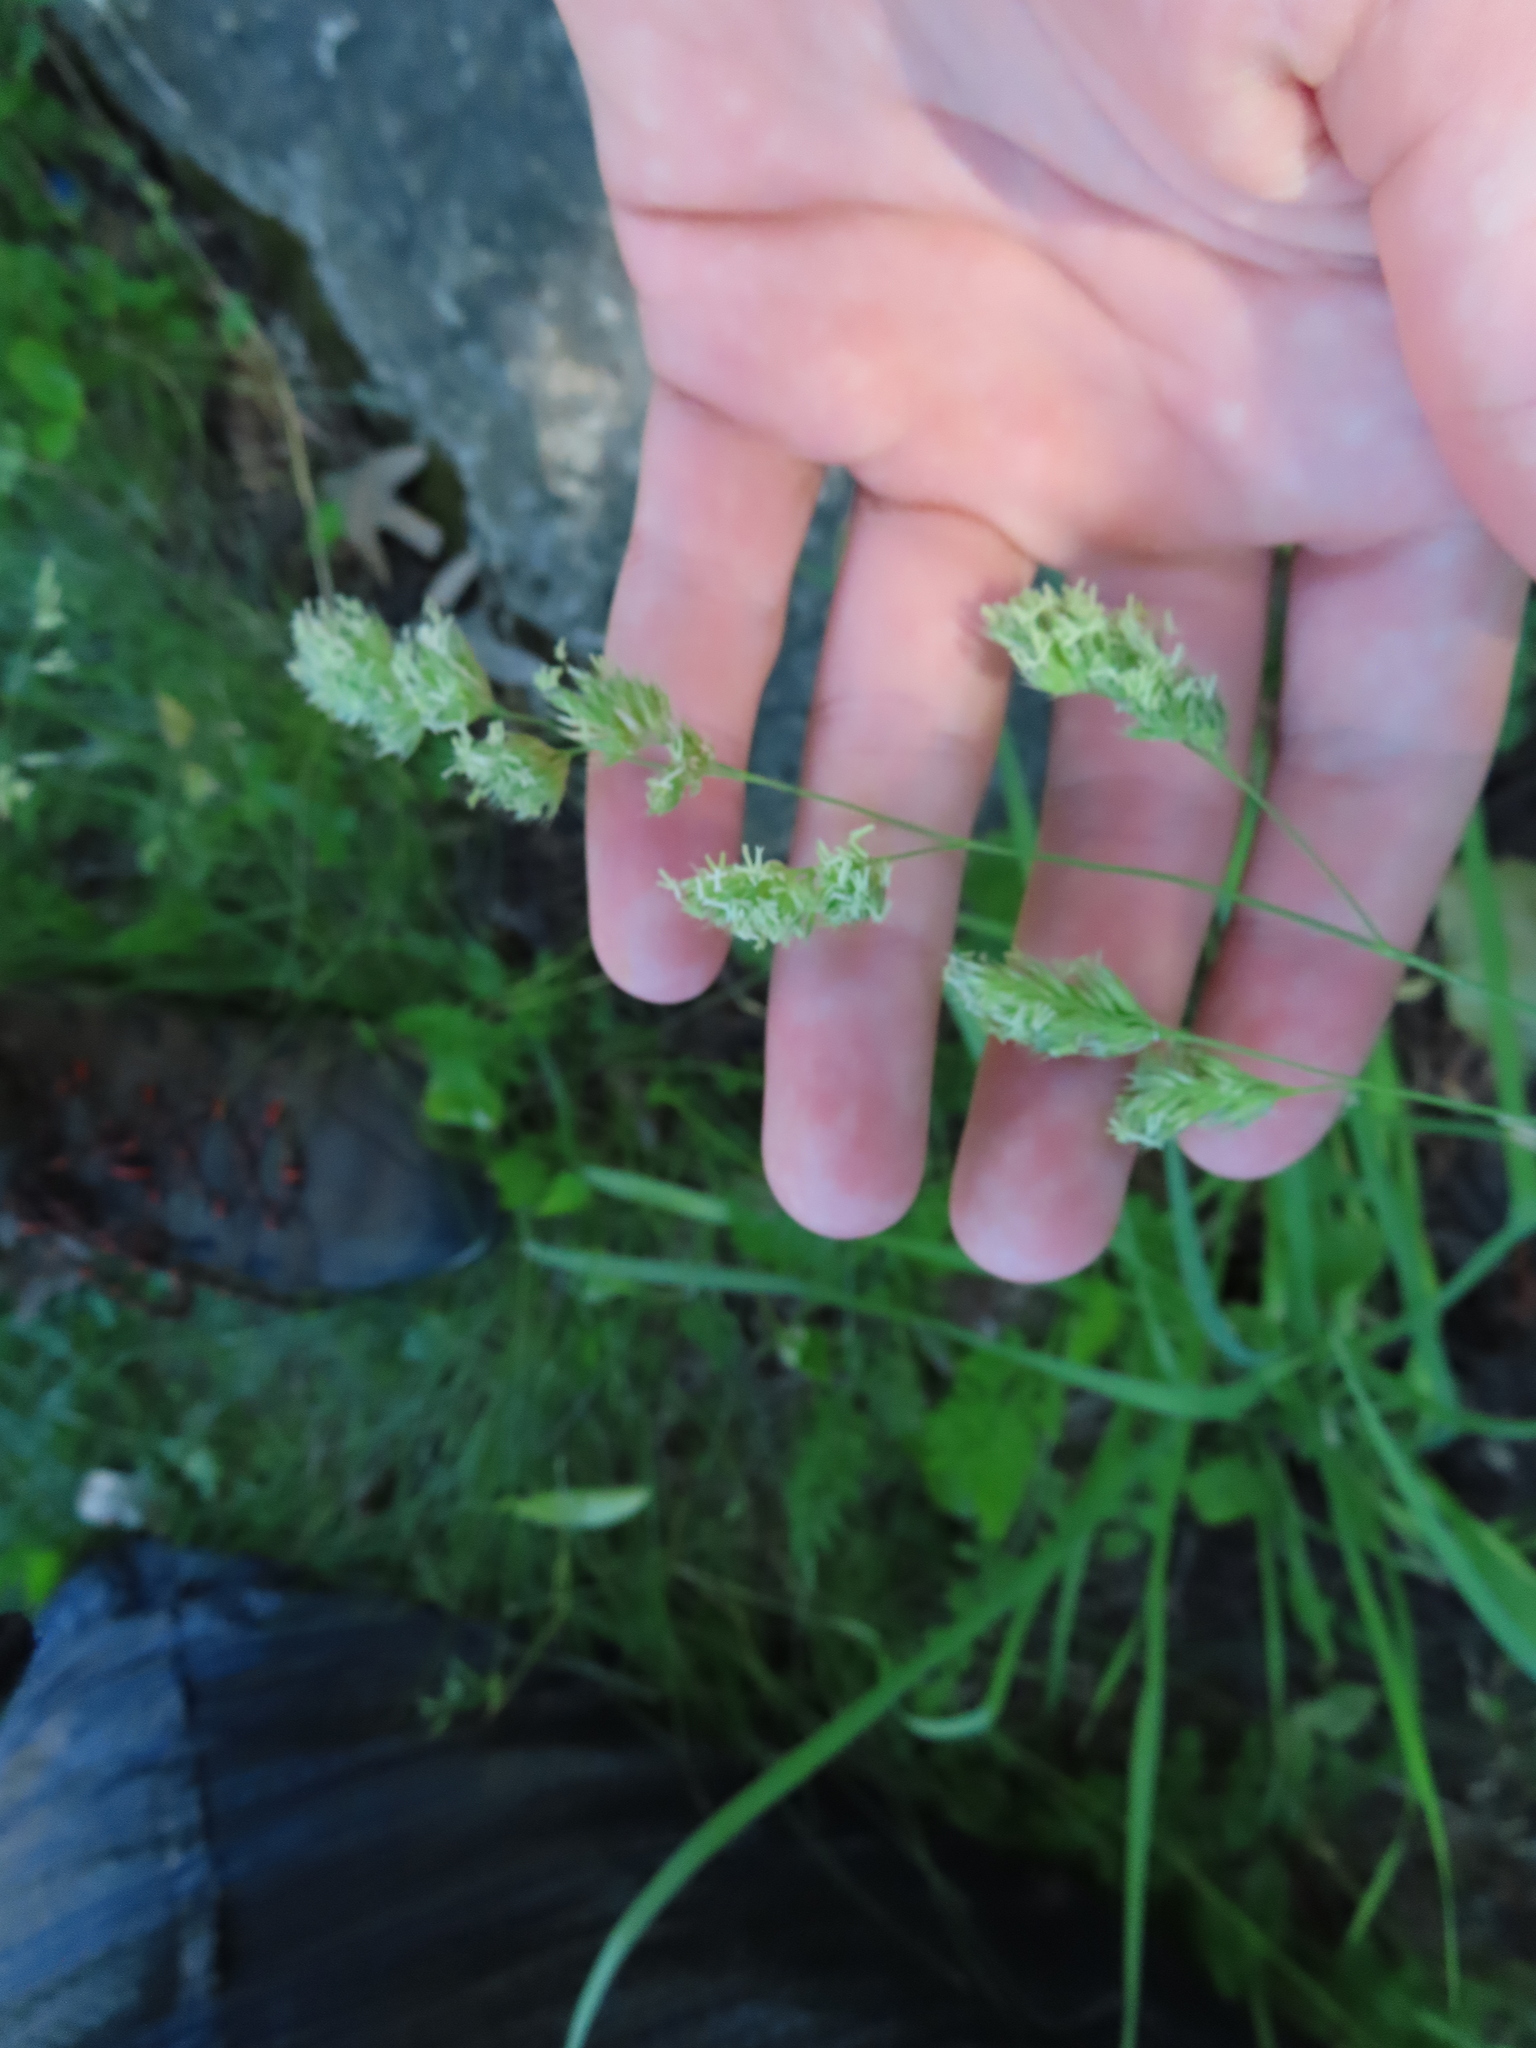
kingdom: Plantae
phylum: Tracheophyta
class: Liliopsida
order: Poales
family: Poaceae
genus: Dactylis
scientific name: Dactylis glomerata
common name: Orchardgrass
